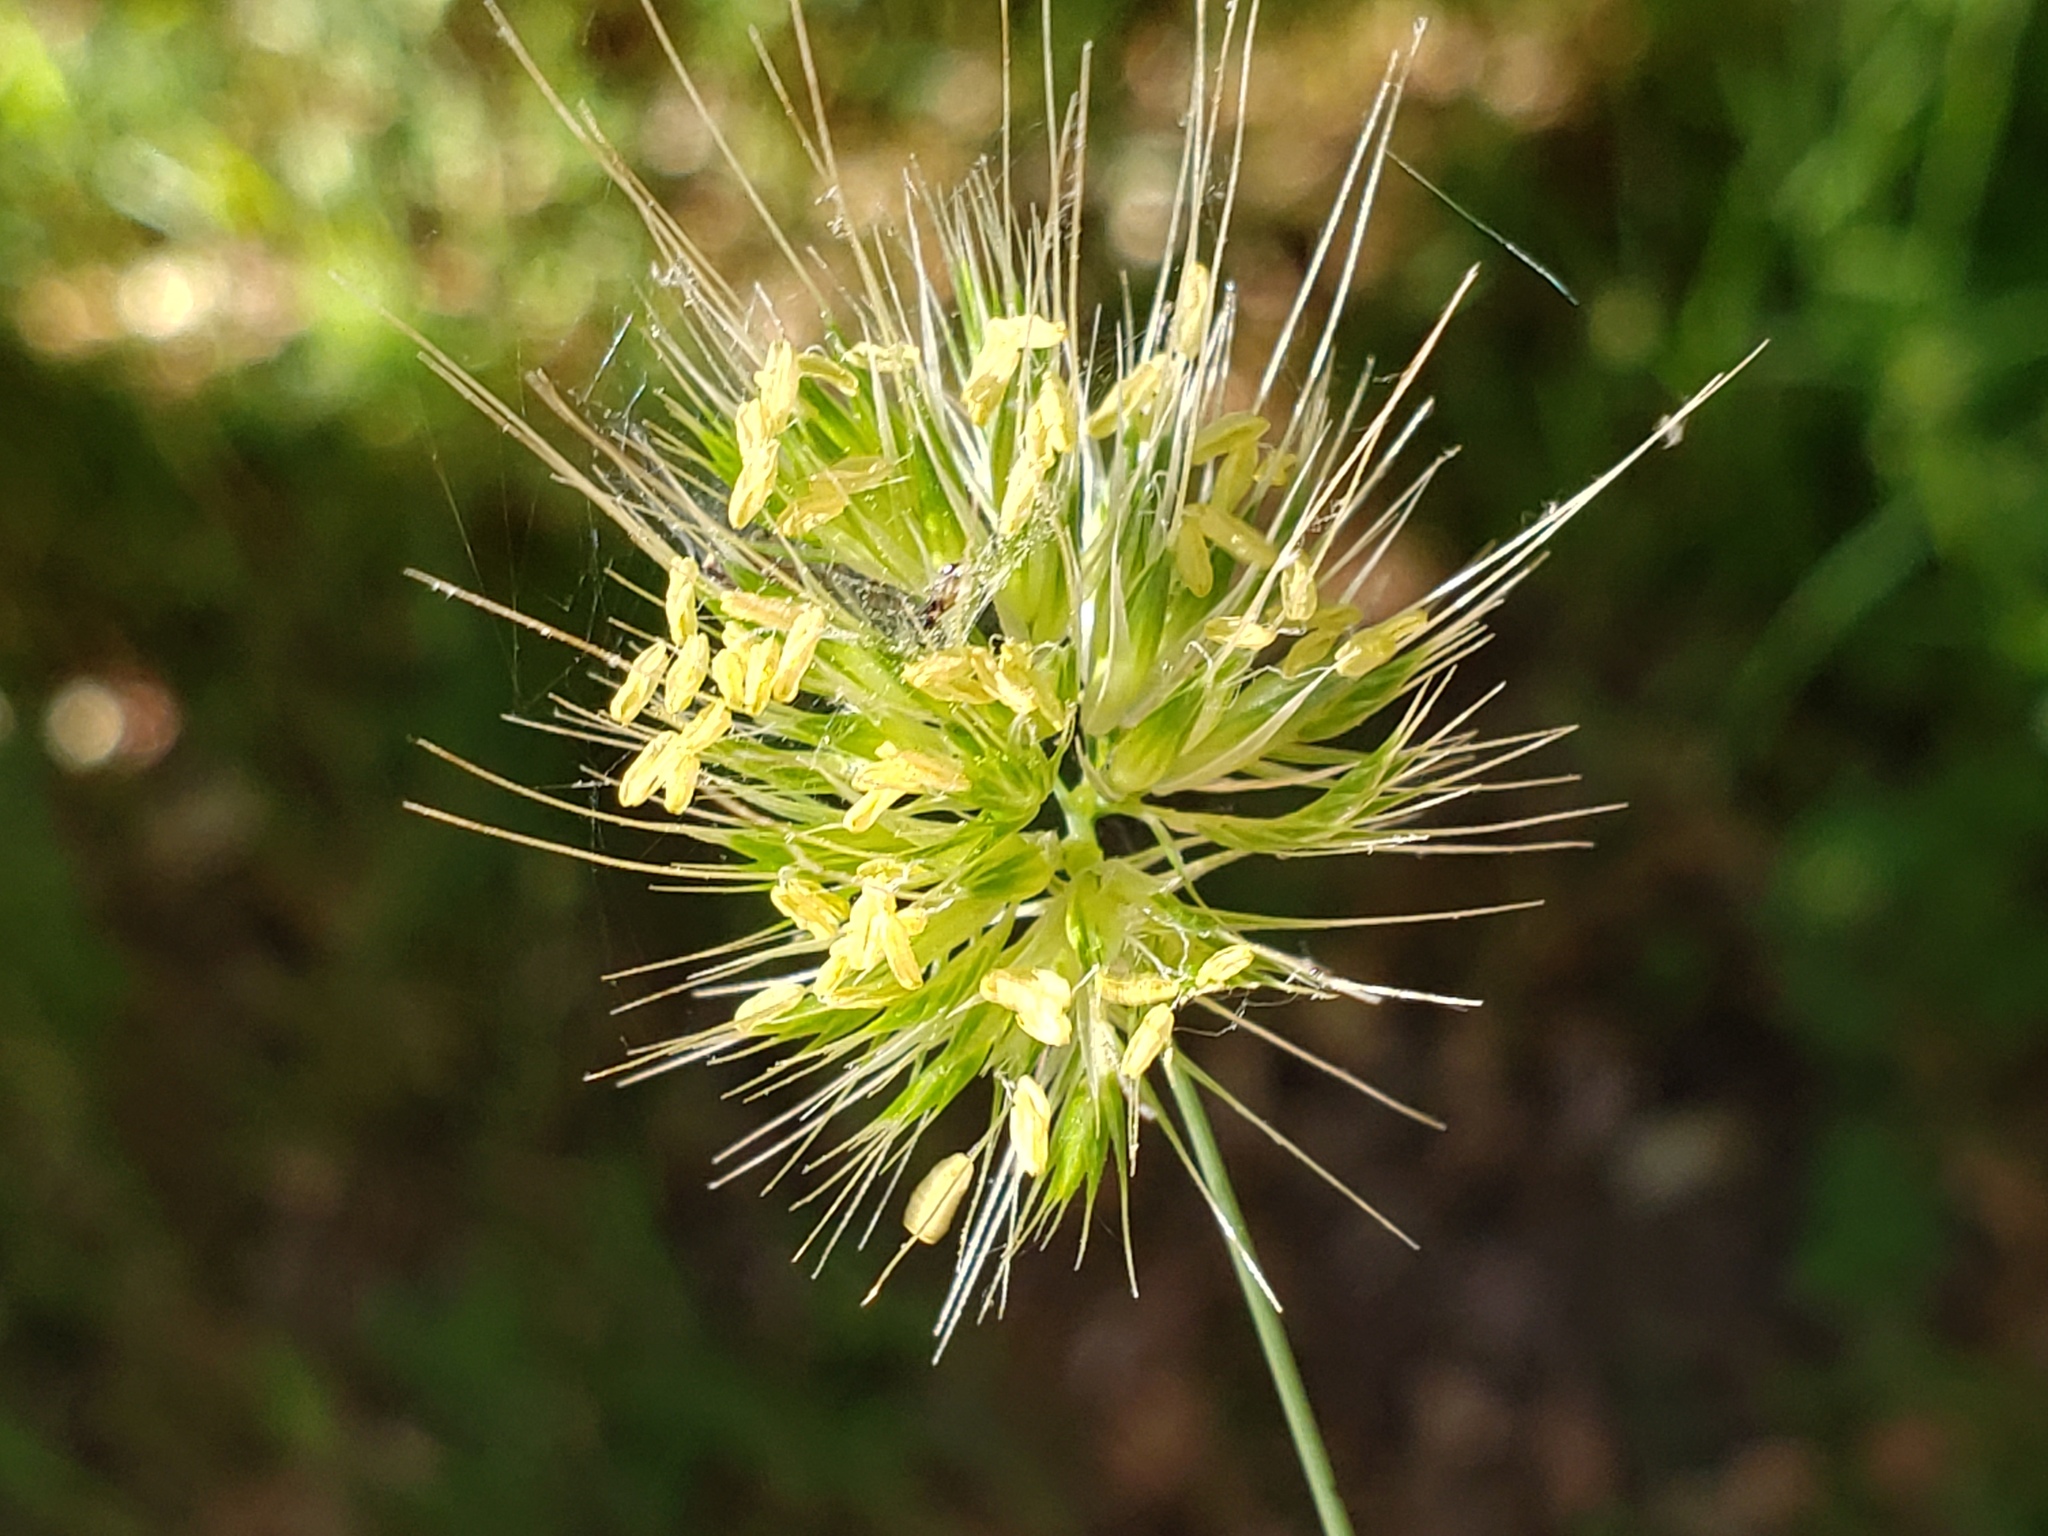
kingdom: Plantae
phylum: Tracheophyta
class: Liliopsida
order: Poales
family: Poaceae
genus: Cynosurus
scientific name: Cynosurus echinatus
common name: Rough dog's-tail
